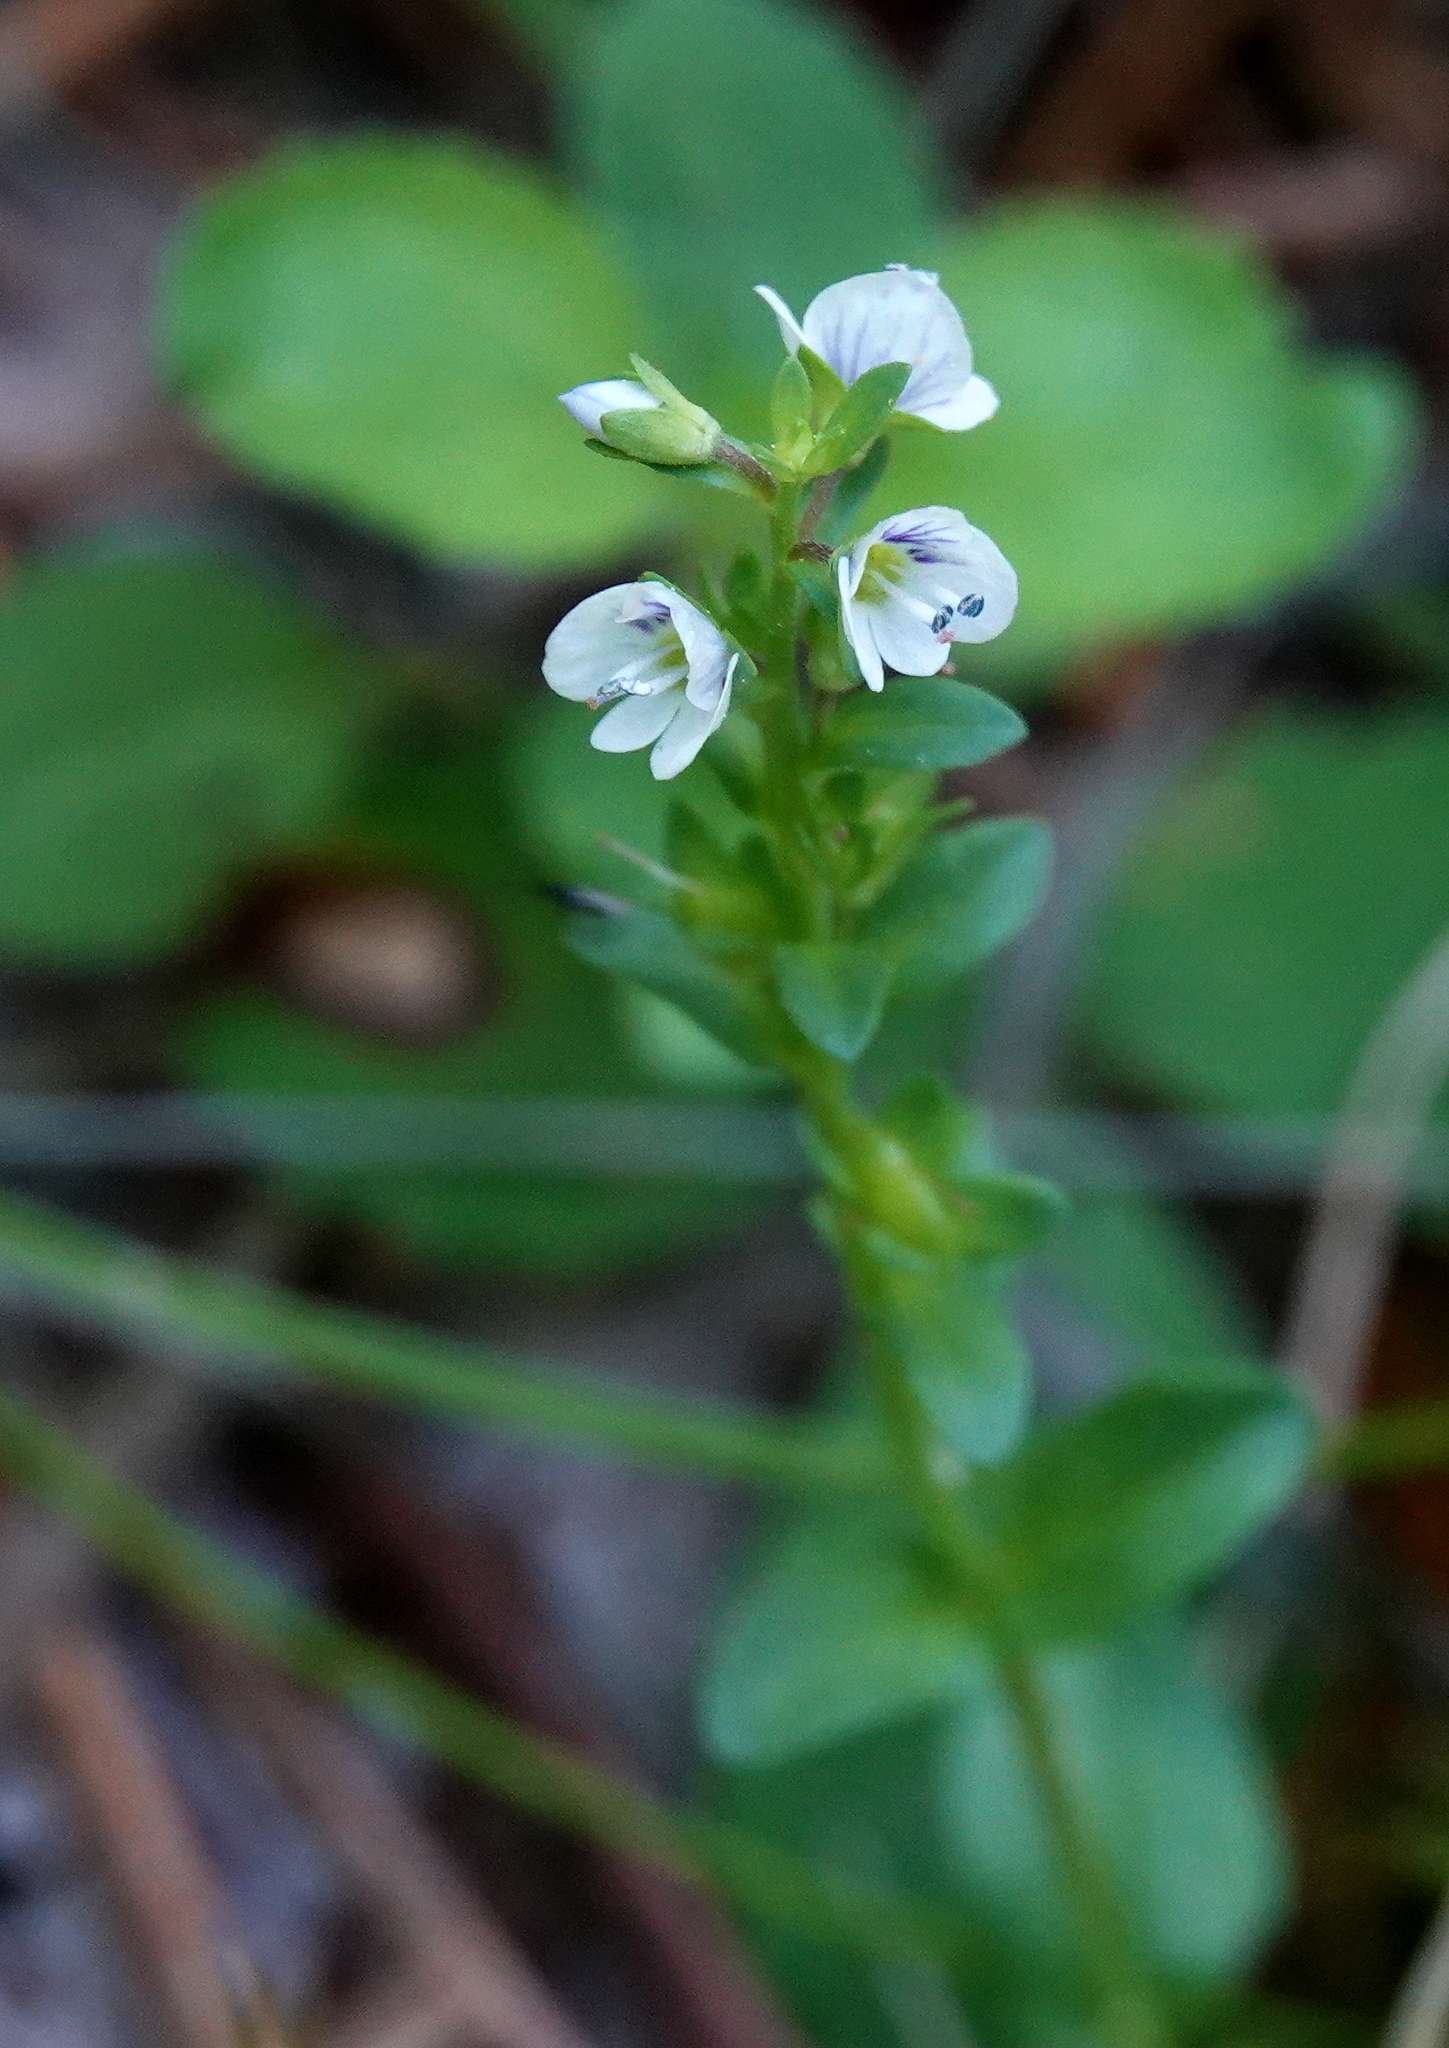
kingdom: Plantae
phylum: Tracheophyta
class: Magnoliopsida
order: Lamiales
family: Plantaginaceae
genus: Veronica
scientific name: Veronica serpyllifolia
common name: Thyme-leaved speedwell
